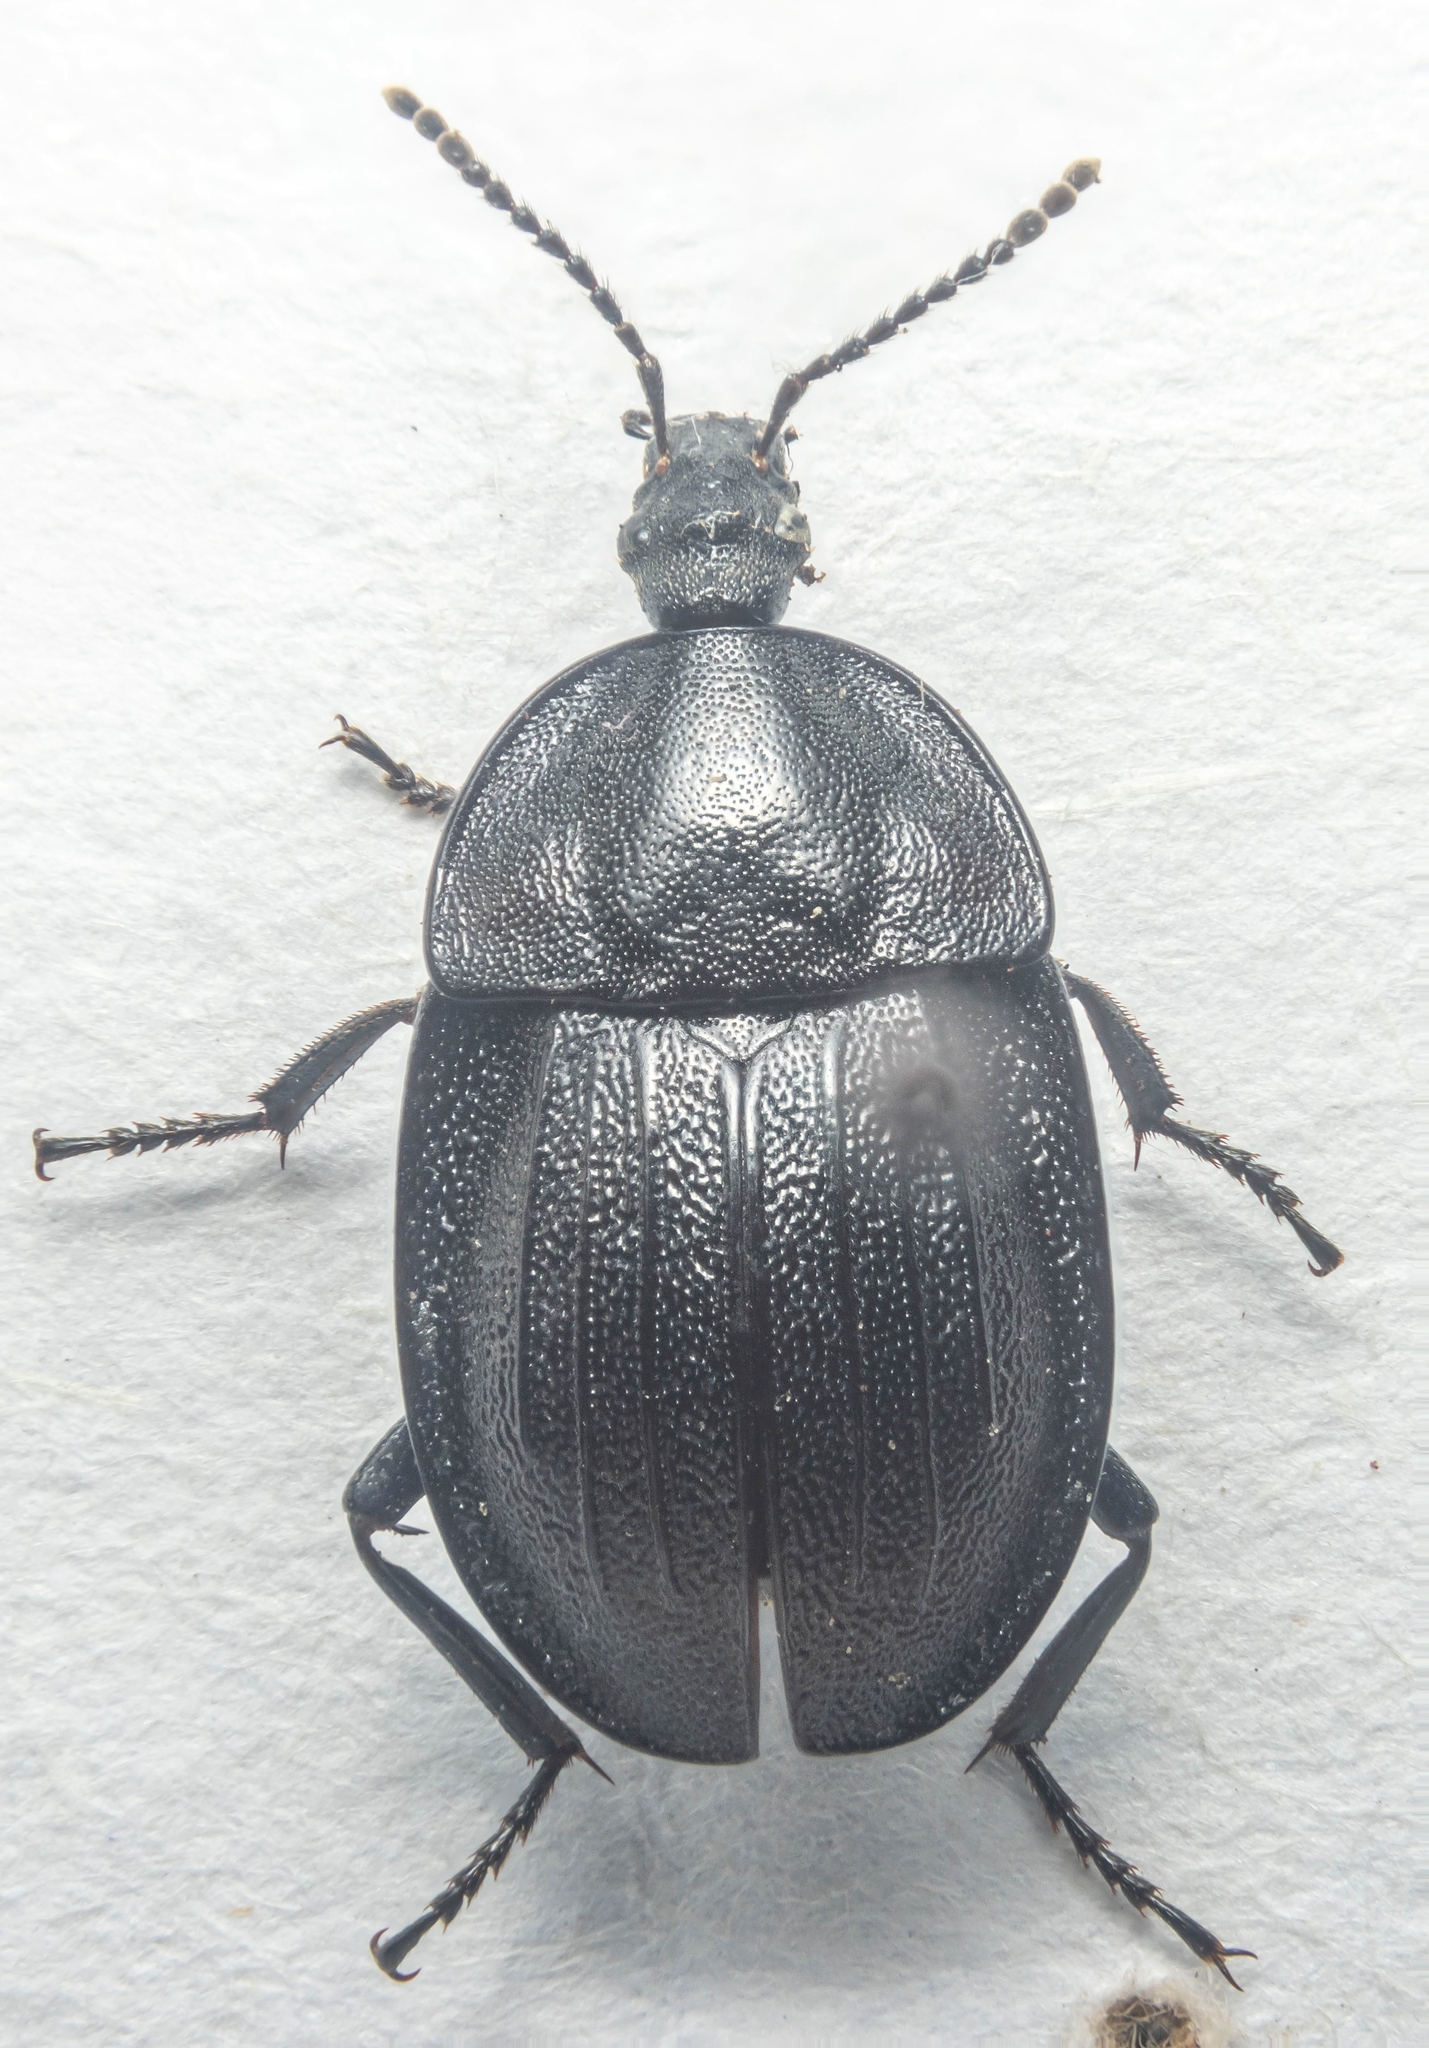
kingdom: Animalia
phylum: Arthropoda
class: Insecta
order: Coleoptera
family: Staphylinidae
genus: Silpha
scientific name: Silpha atrata
